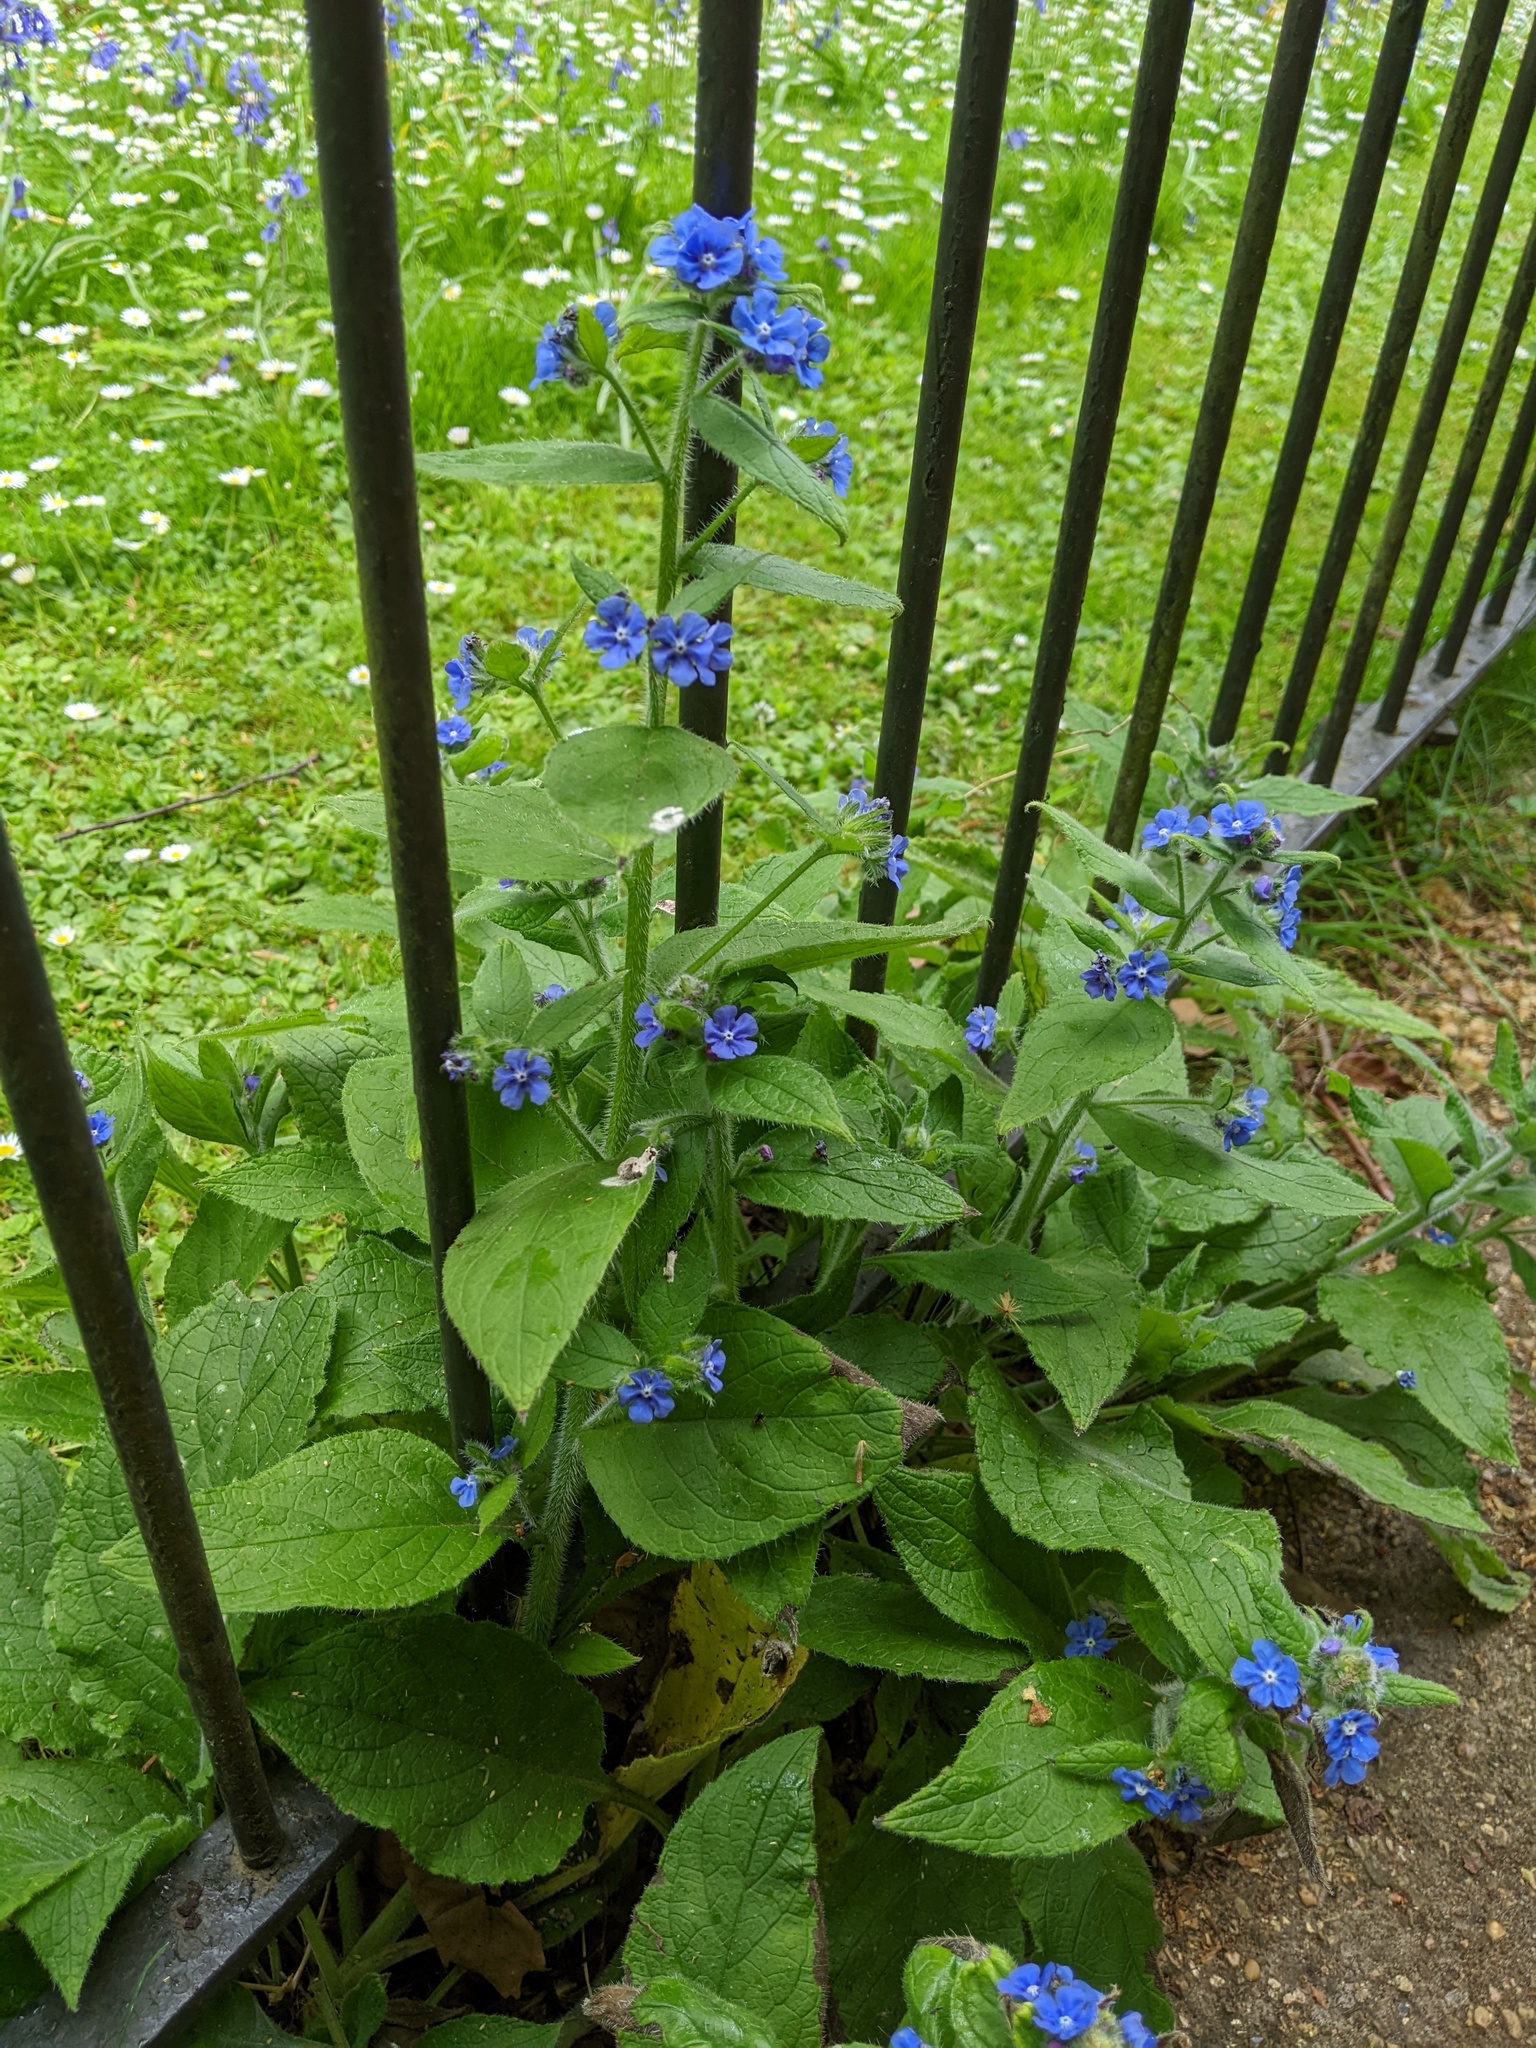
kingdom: Plantae
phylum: Tracheophyta
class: Magnoliopsida
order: Boraginales
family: Boraginaceae
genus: Pentaglottis
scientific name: Pentaglottis sempervirens
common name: Green alkanet
